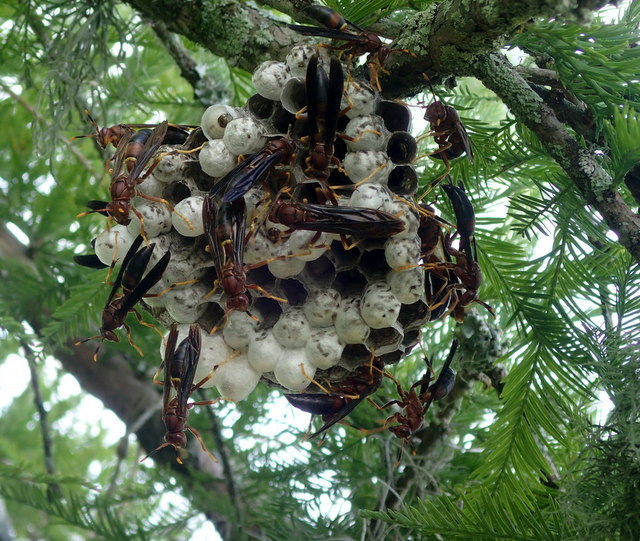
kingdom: Animalia
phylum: Arthropoda
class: Insecta
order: Hymenoptera
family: Eumenidae
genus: Polistes
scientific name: Polistes annularis
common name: Ringed paper wasp
